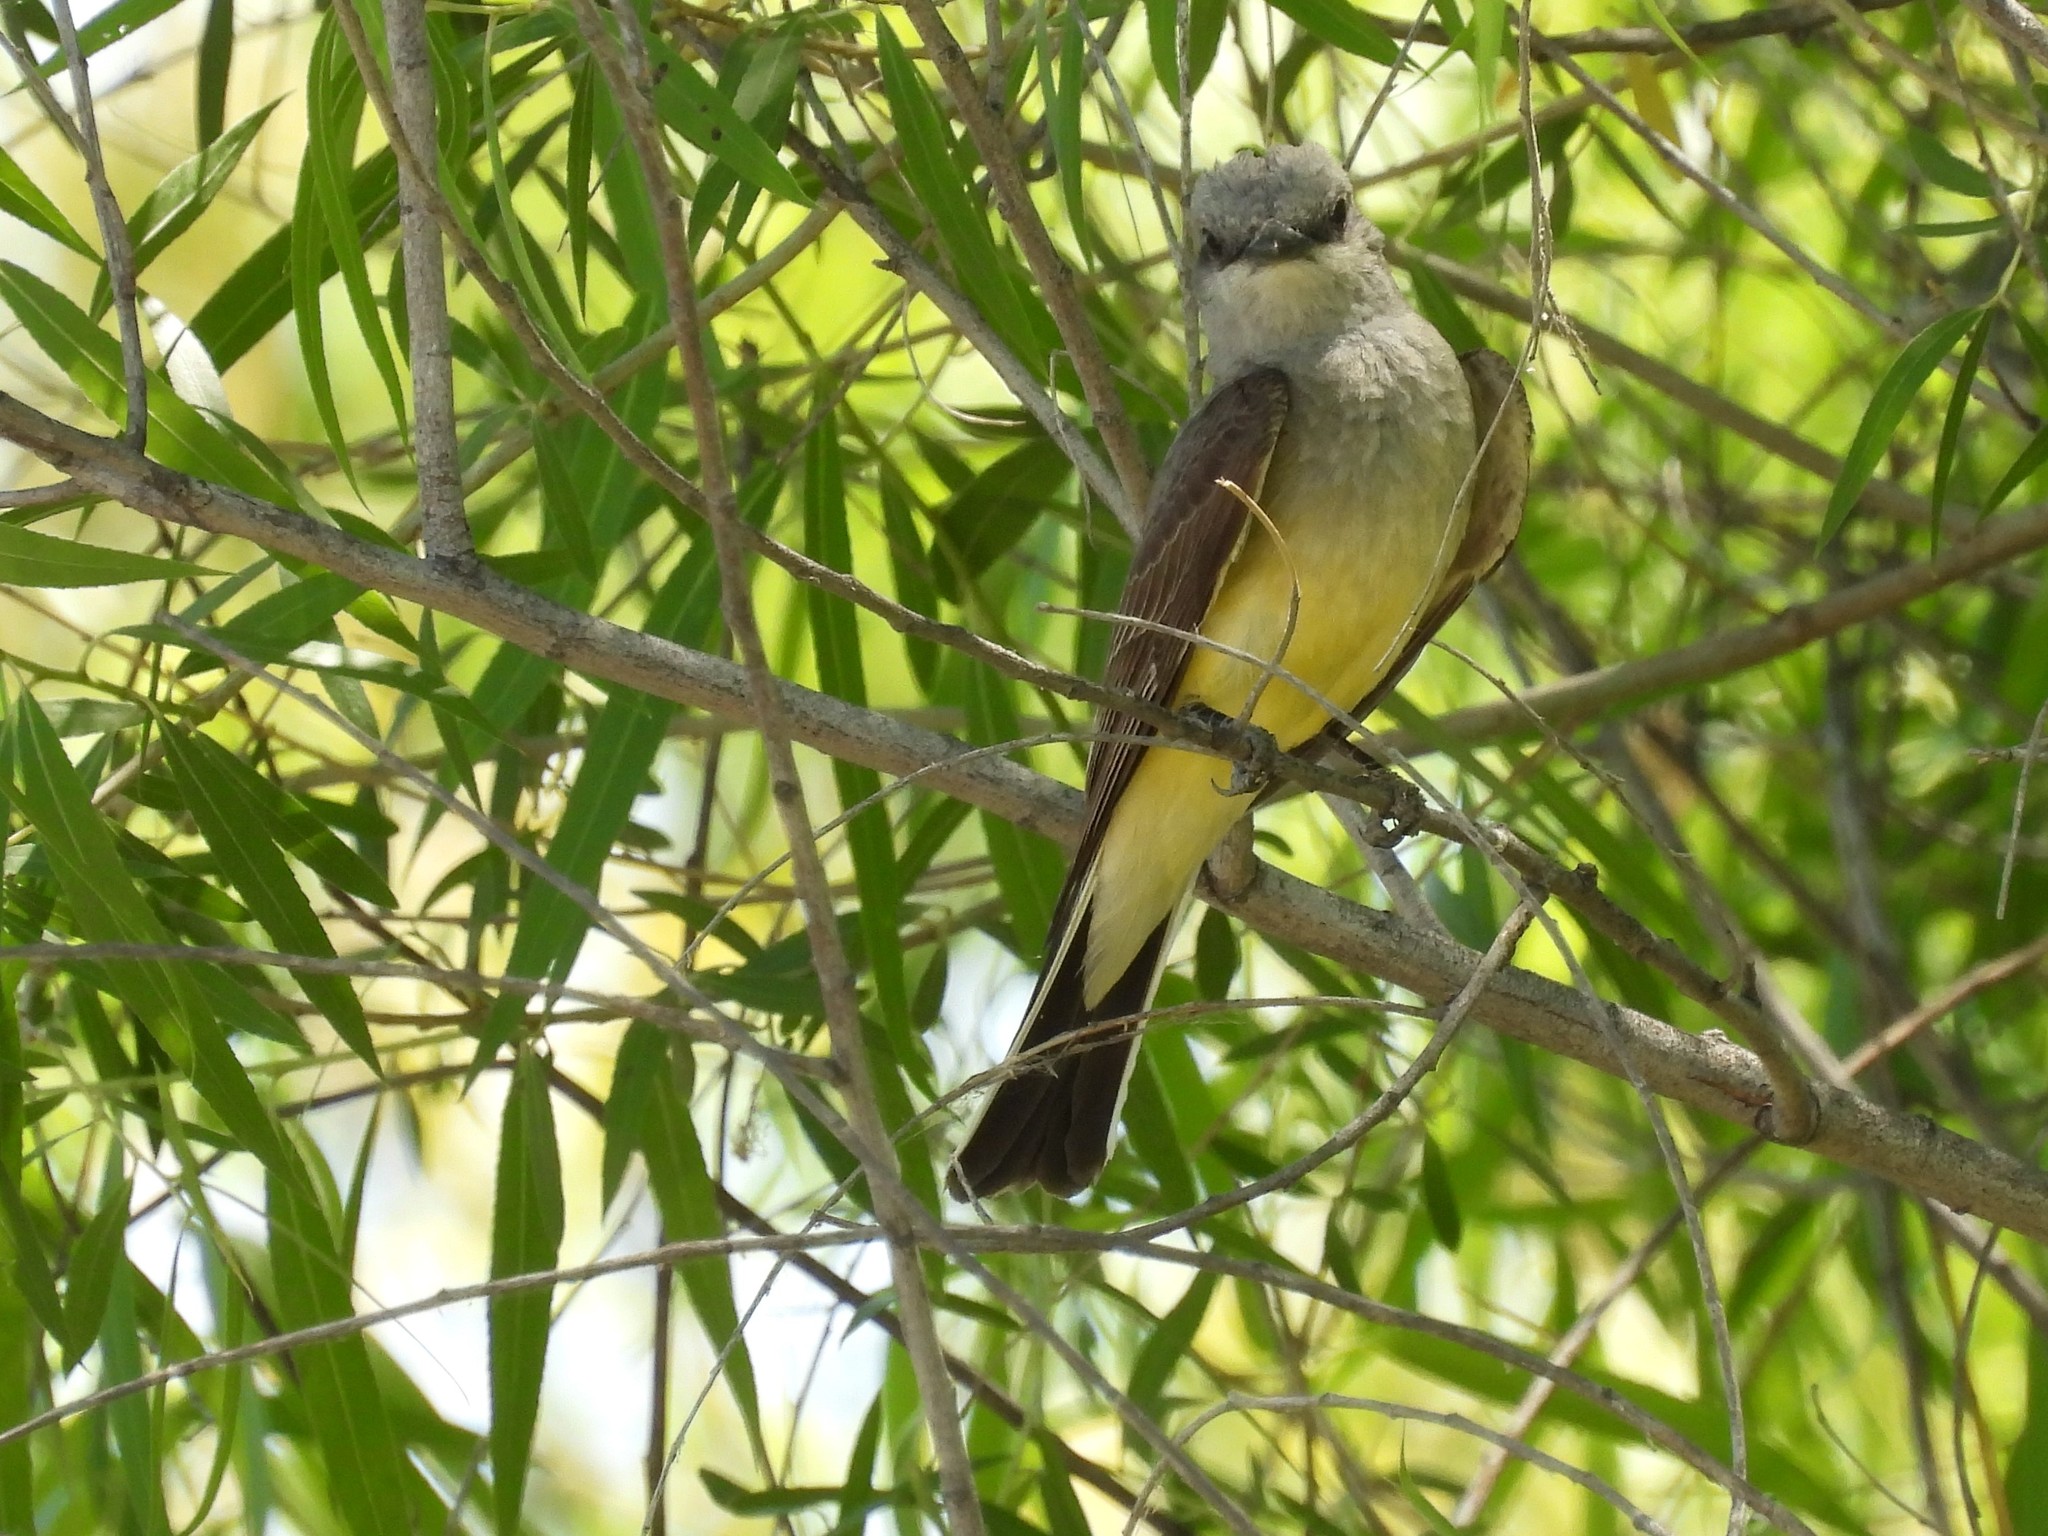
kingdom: Animalia
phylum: Chordata
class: Aves
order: Passeriformes
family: Tyrannidae
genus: Tyrannus
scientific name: Tyrannus verticalis
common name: Western kingbird
